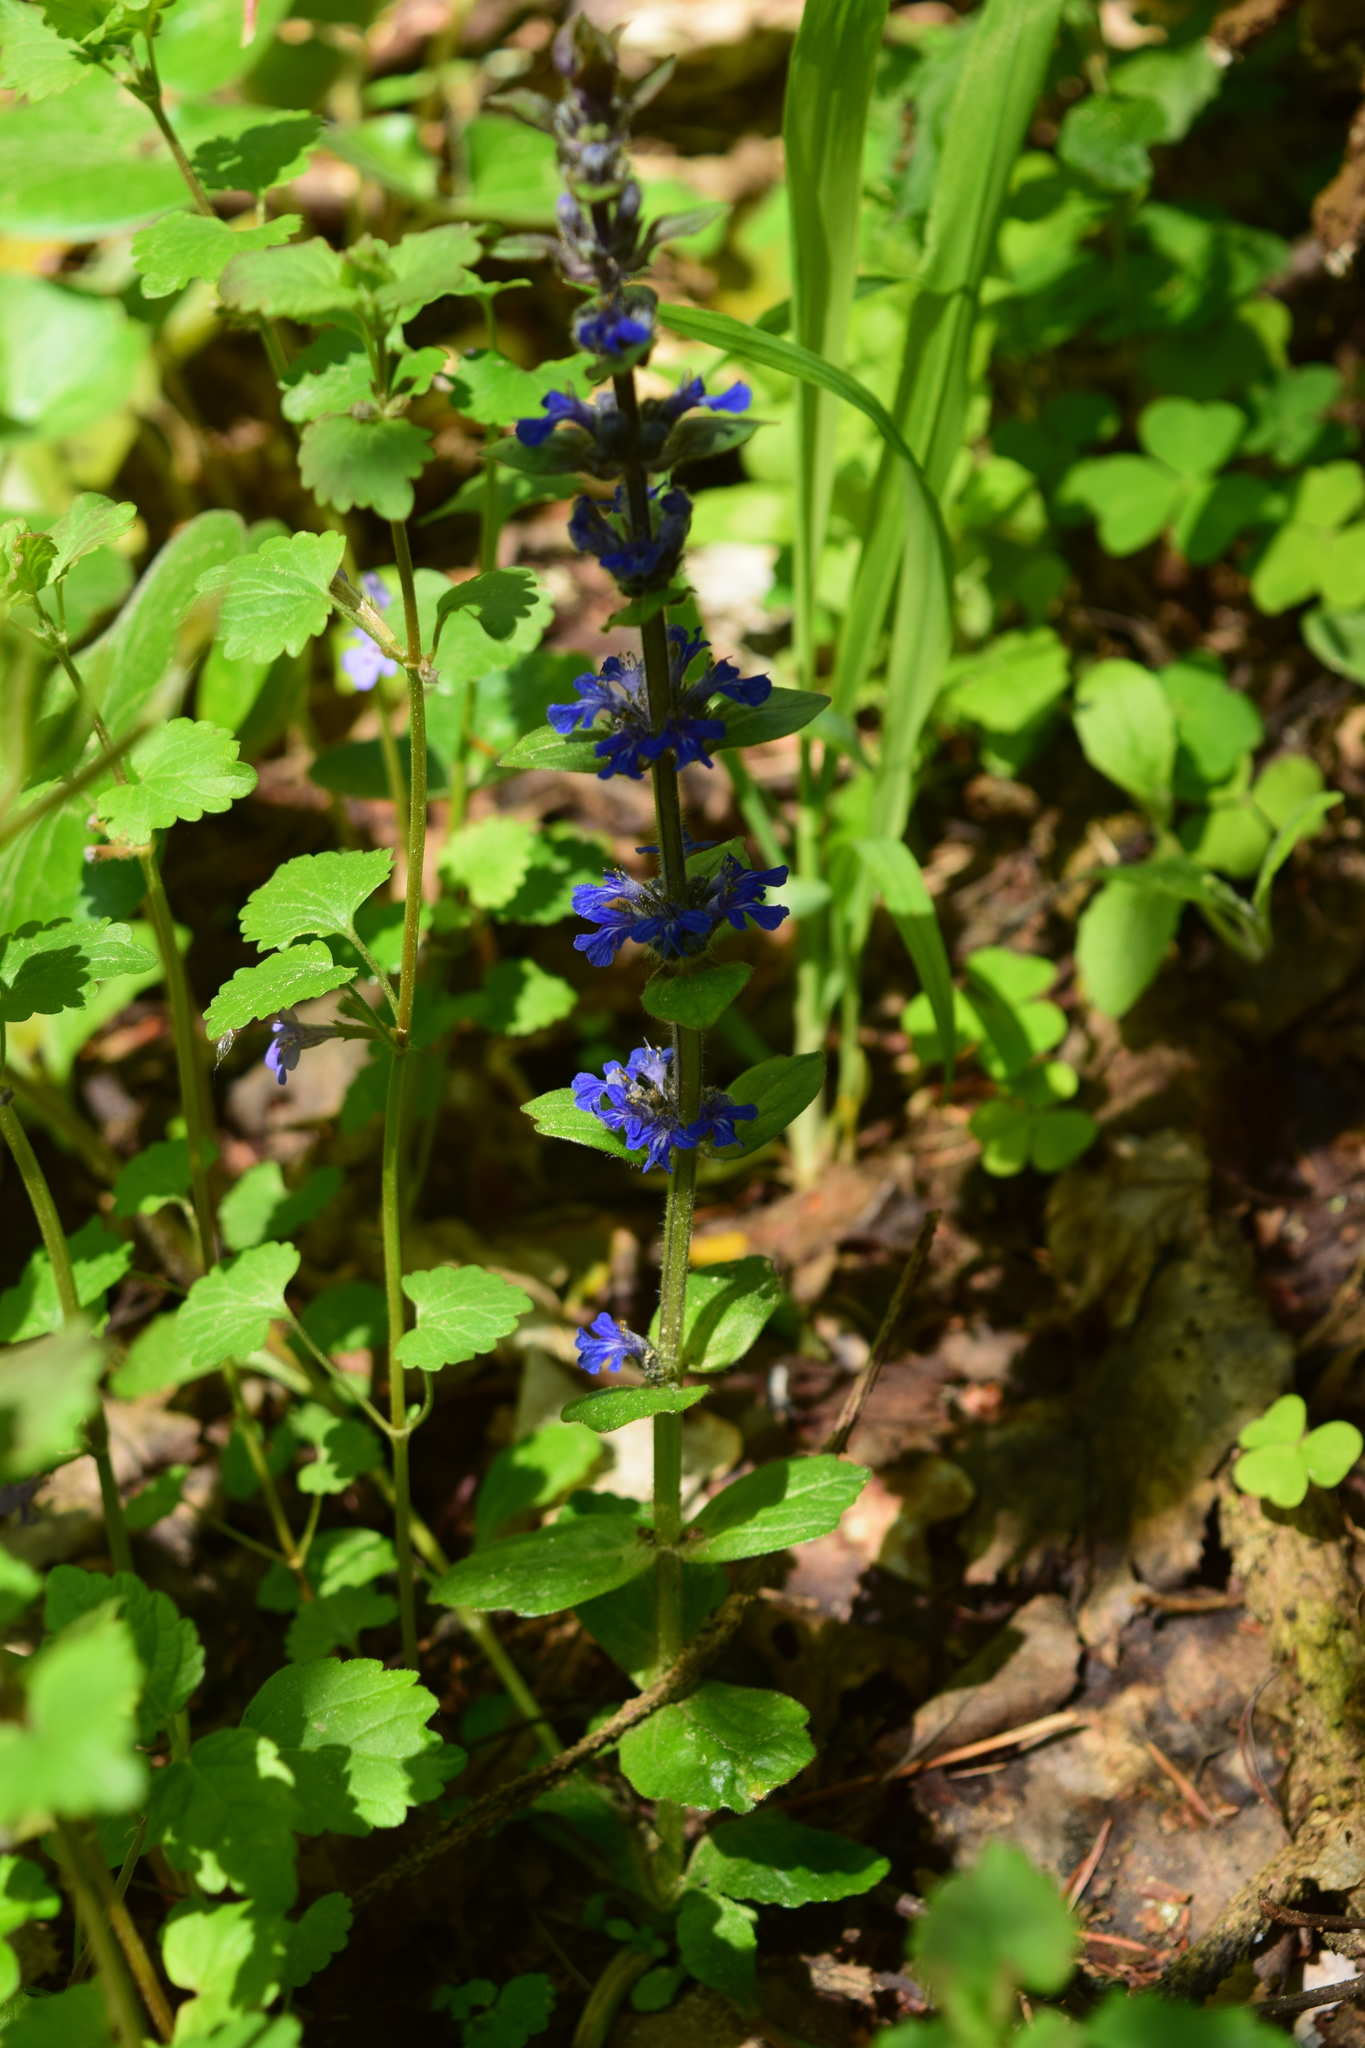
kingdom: Plantae
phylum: Tracheophyta
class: Magnoliopsida
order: Lamiales
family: Lamiaceae
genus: Ajuga
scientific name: Ajuga reptans
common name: Bugle
